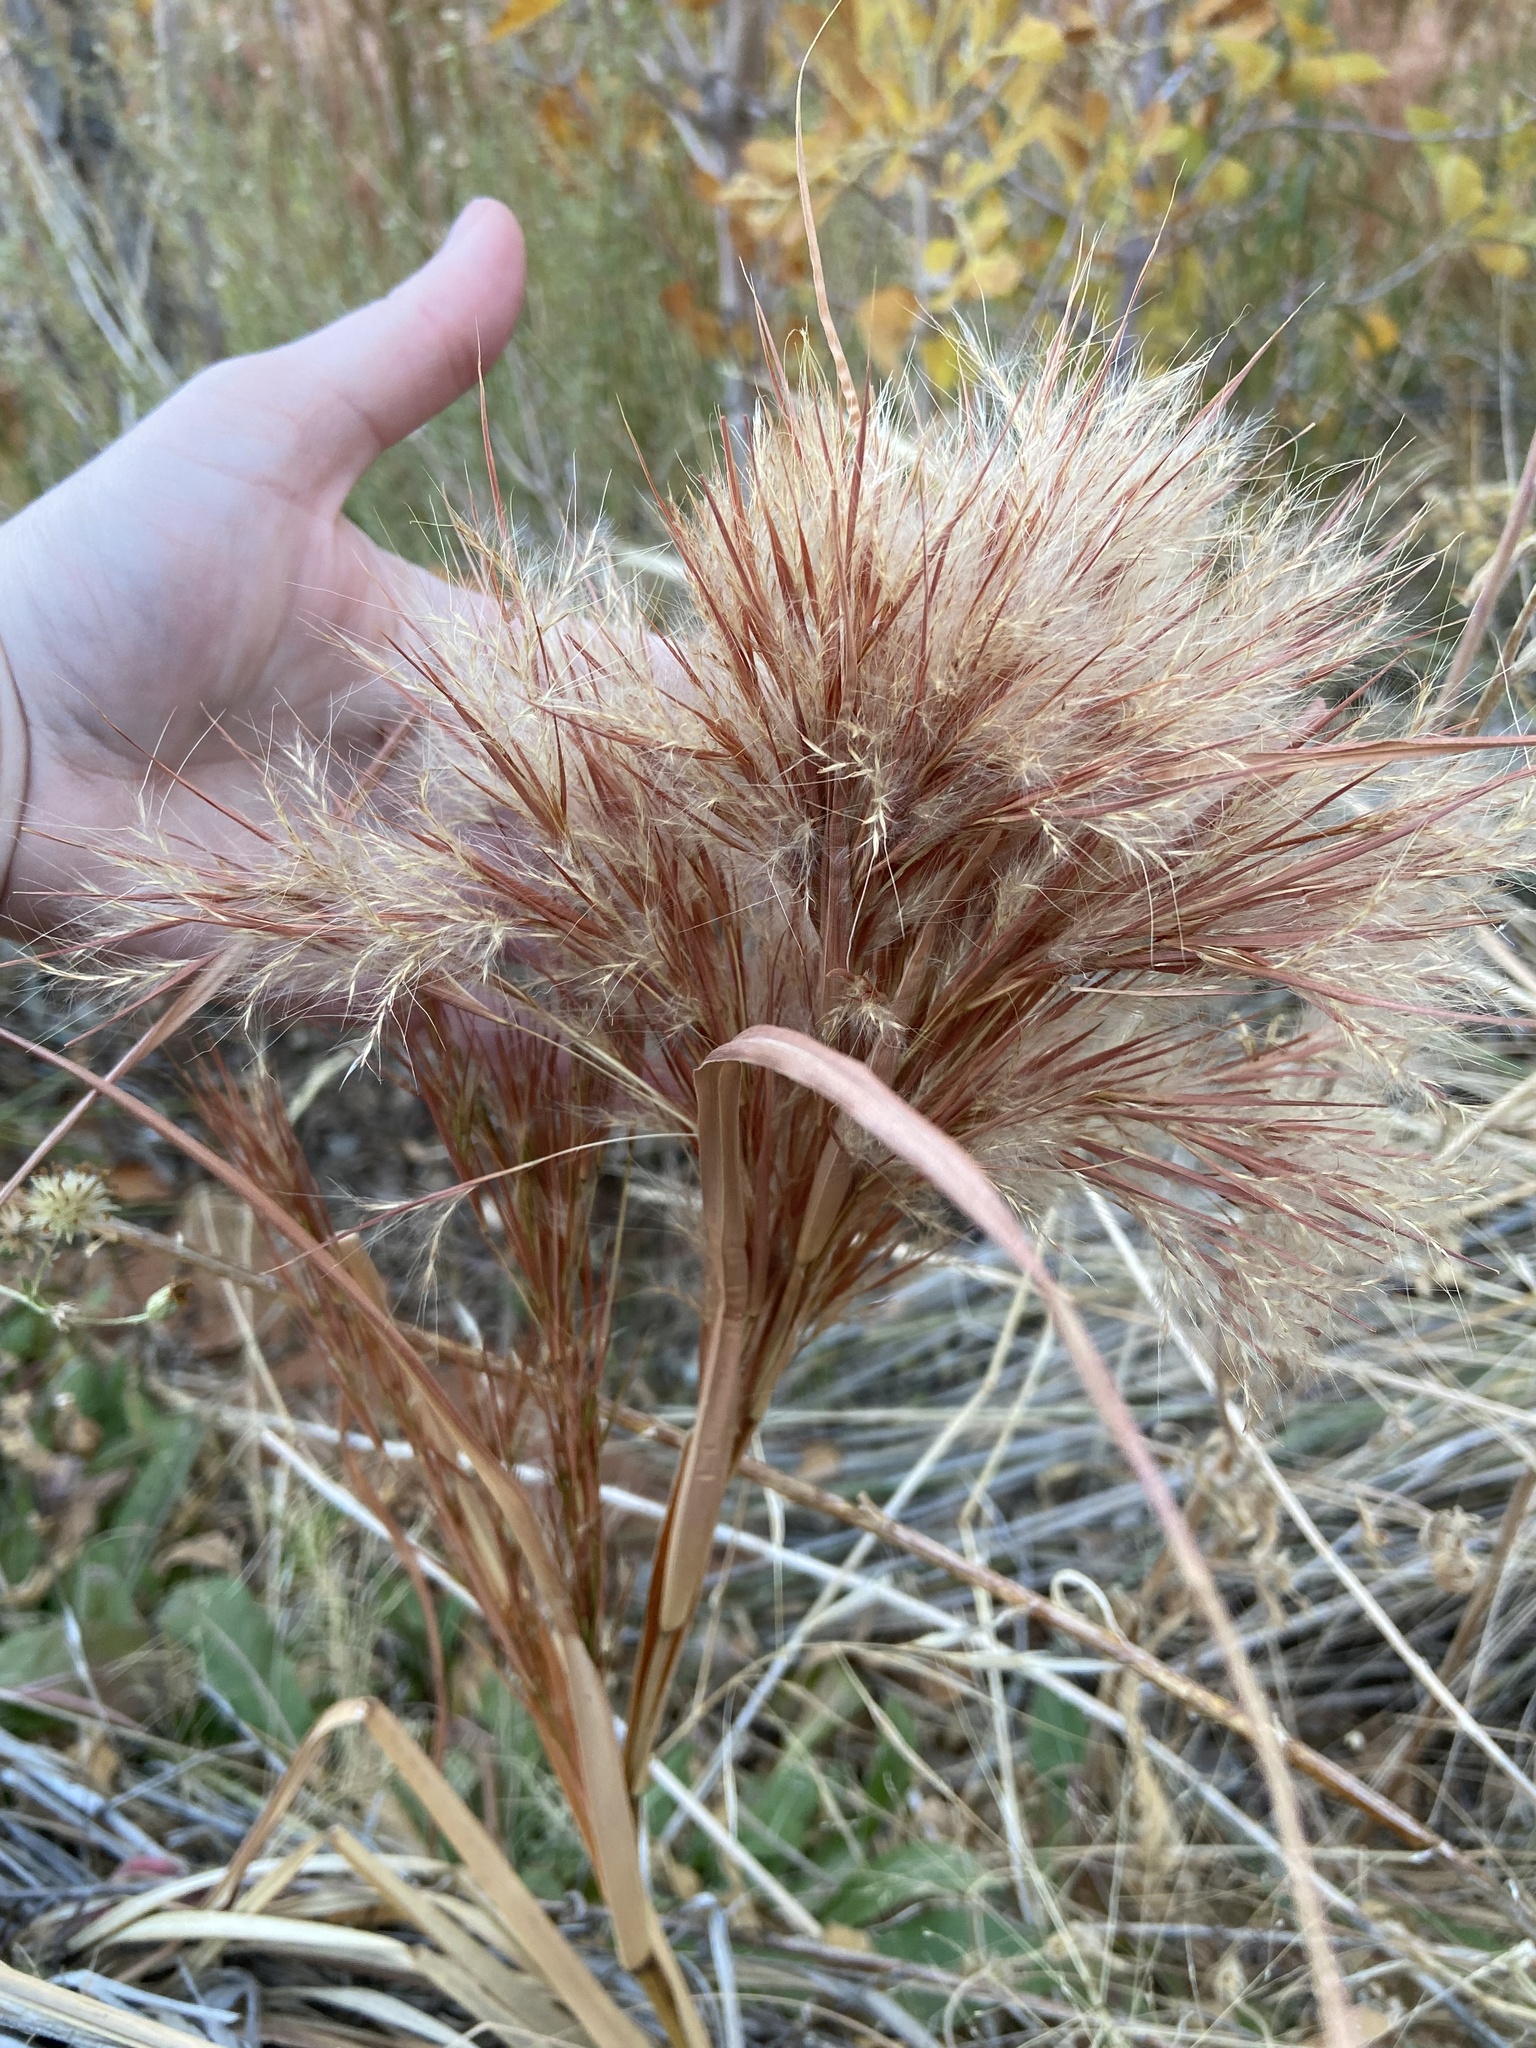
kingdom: Plantae
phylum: Tracheophyta
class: Liliopsida
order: Poales
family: Poaceae
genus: Andropogon
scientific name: Andropogon eremicus
